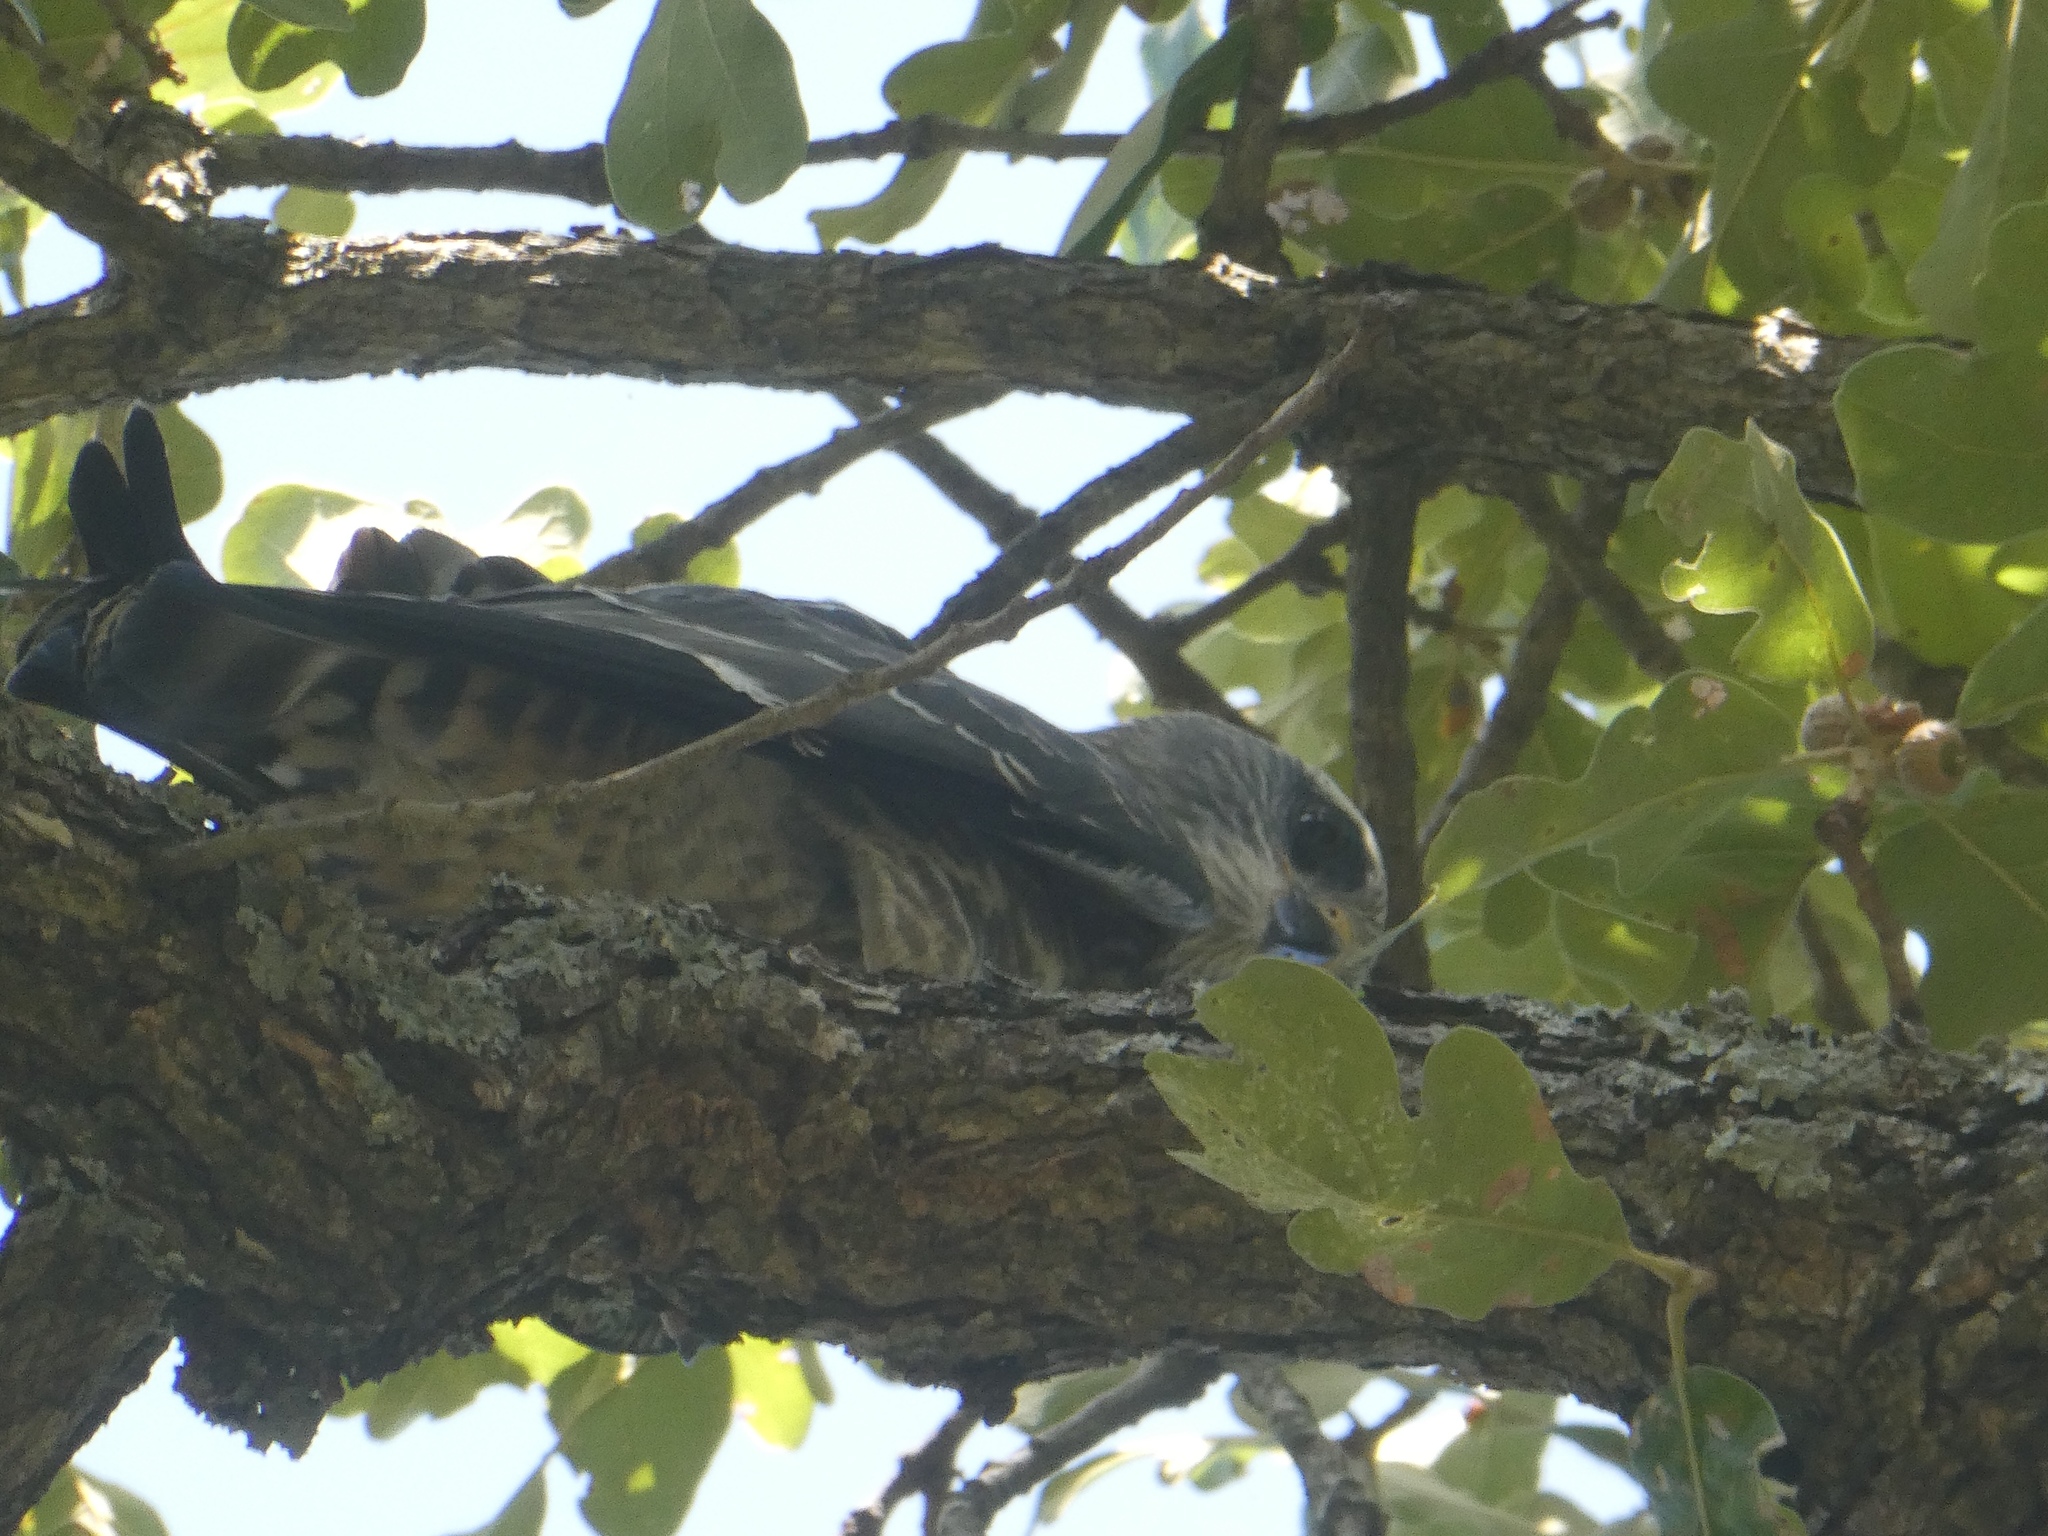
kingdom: Animalia
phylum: Chordata
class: Aves
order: Accipitriformes
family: Accipitridae
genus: Ictinia
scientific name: Ictinia mississippiensis
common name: Mississippi kite
